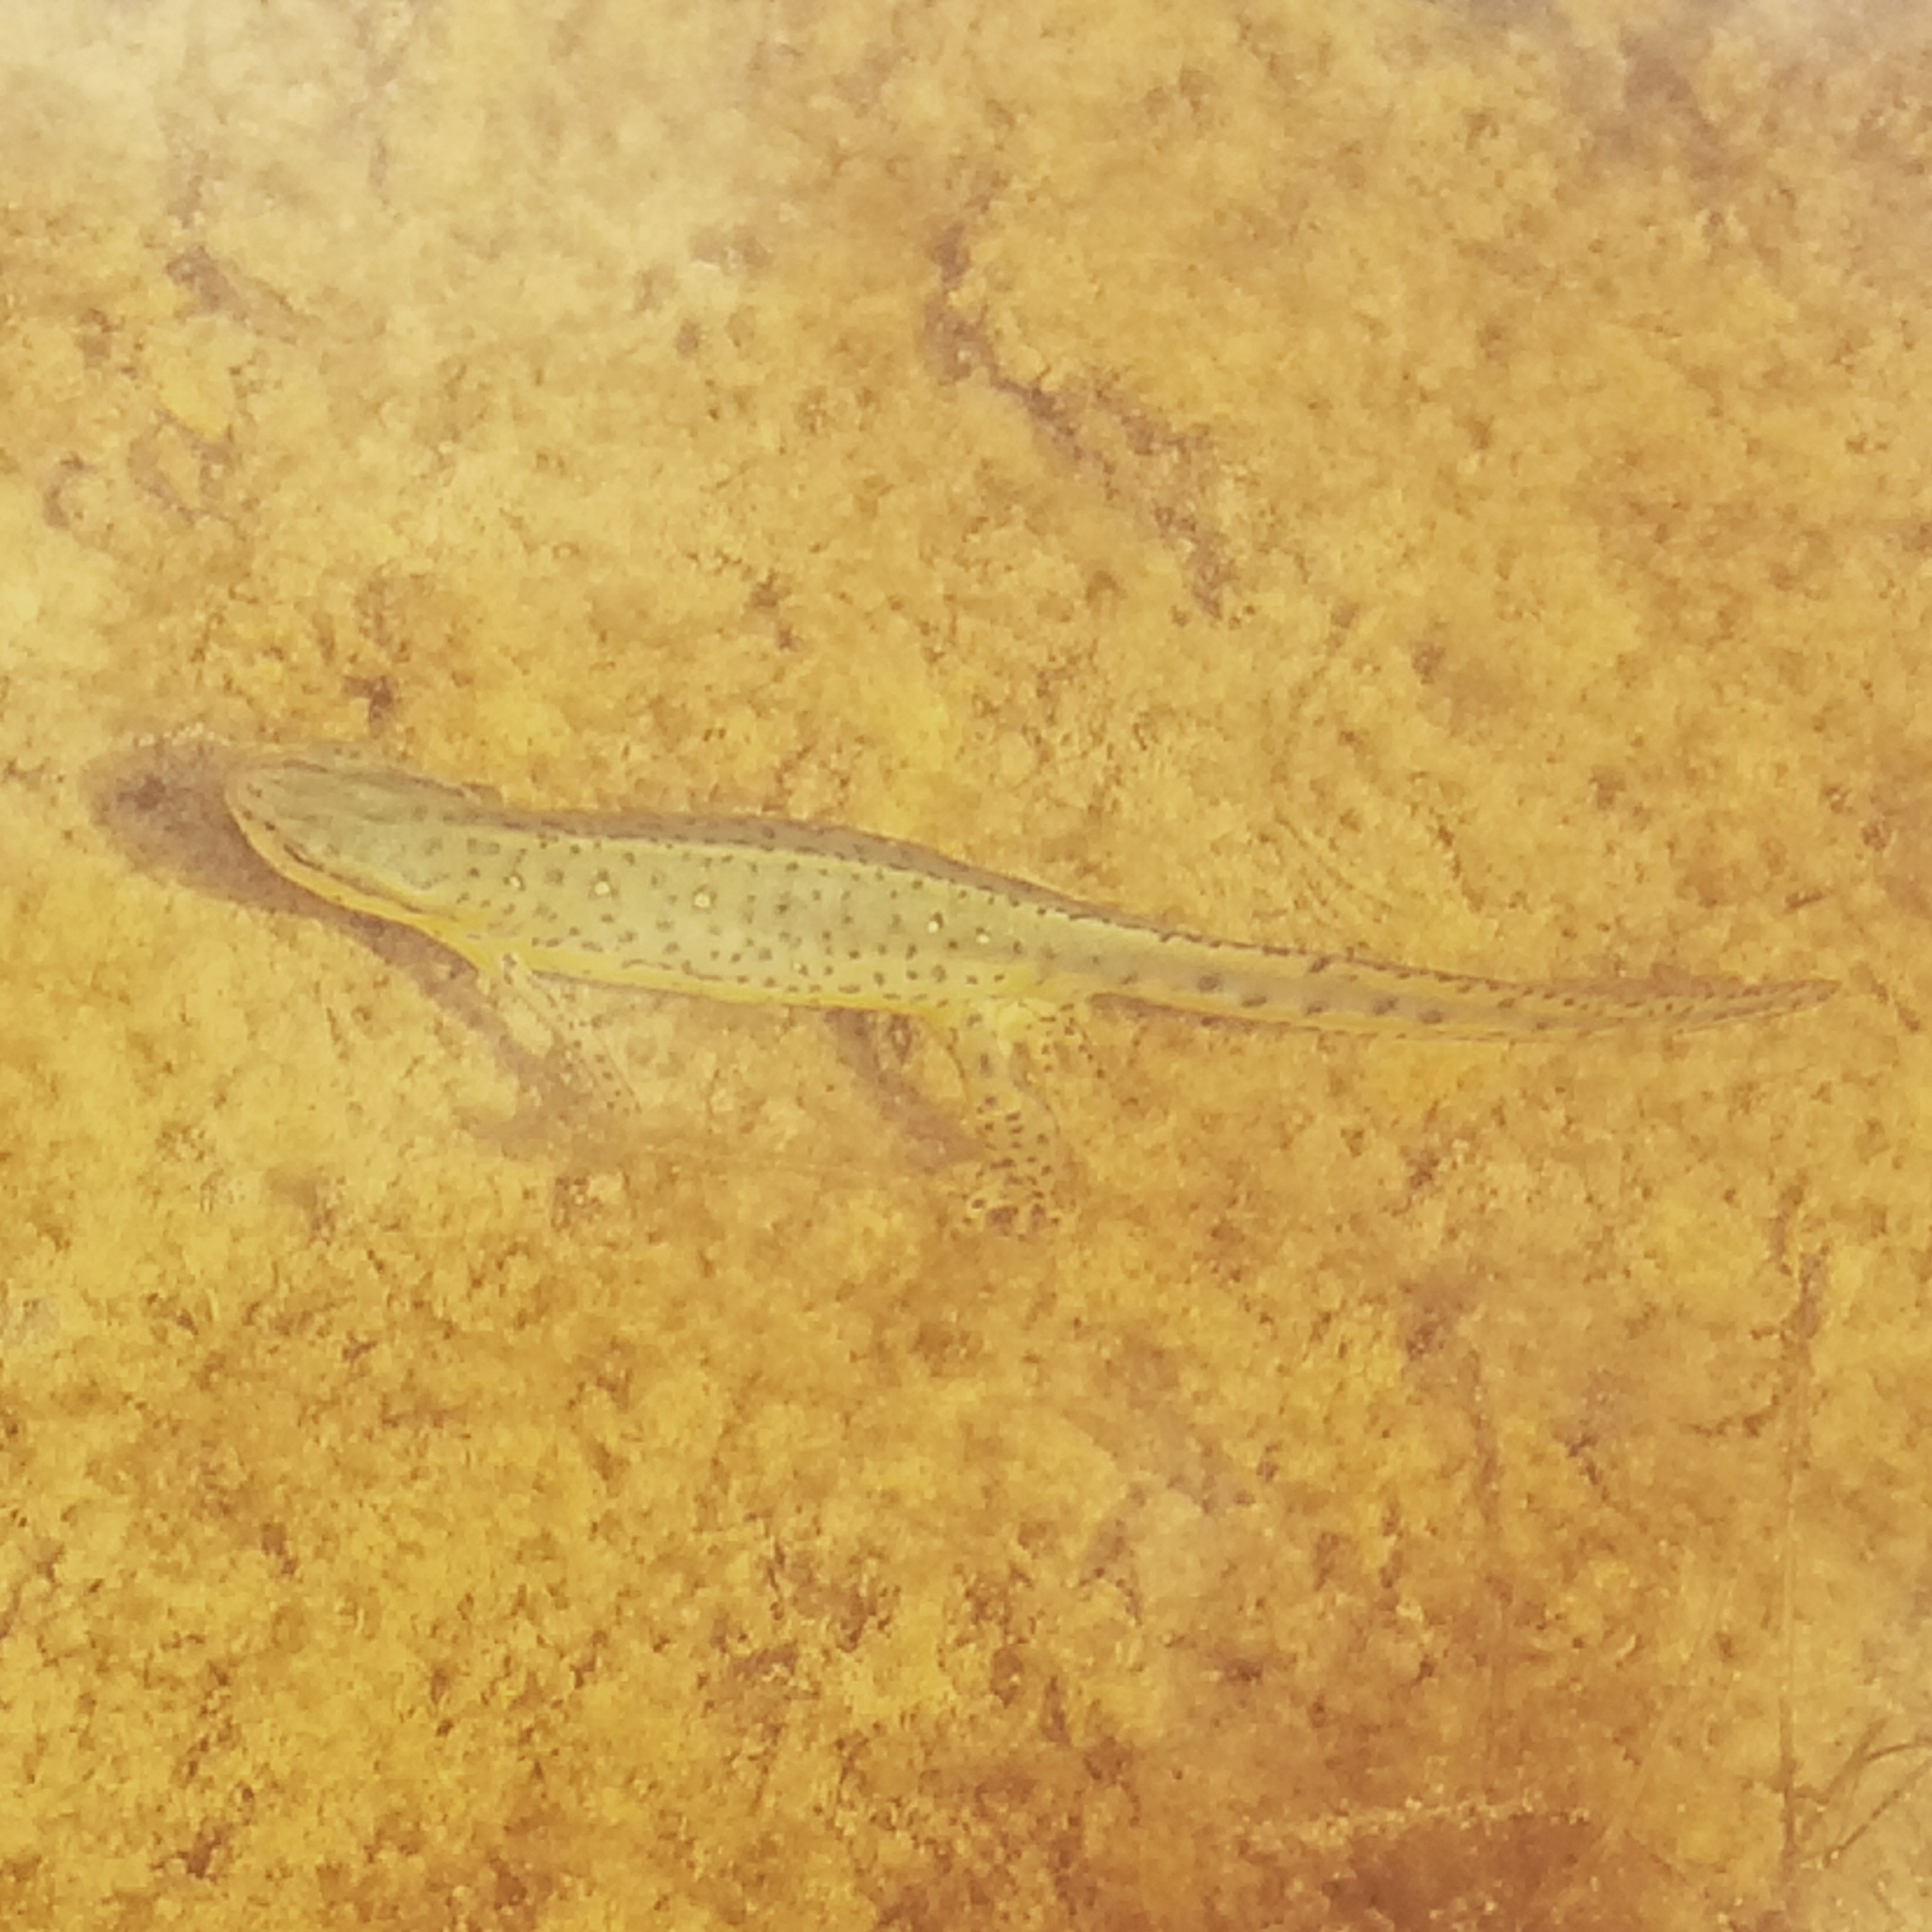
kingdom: Animalia
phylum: Chordata
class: Amphibia
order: Caudata
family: Salamandridae
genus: Notophthalmus
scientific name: Notophthalmus viridescens
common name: Eastern newt
